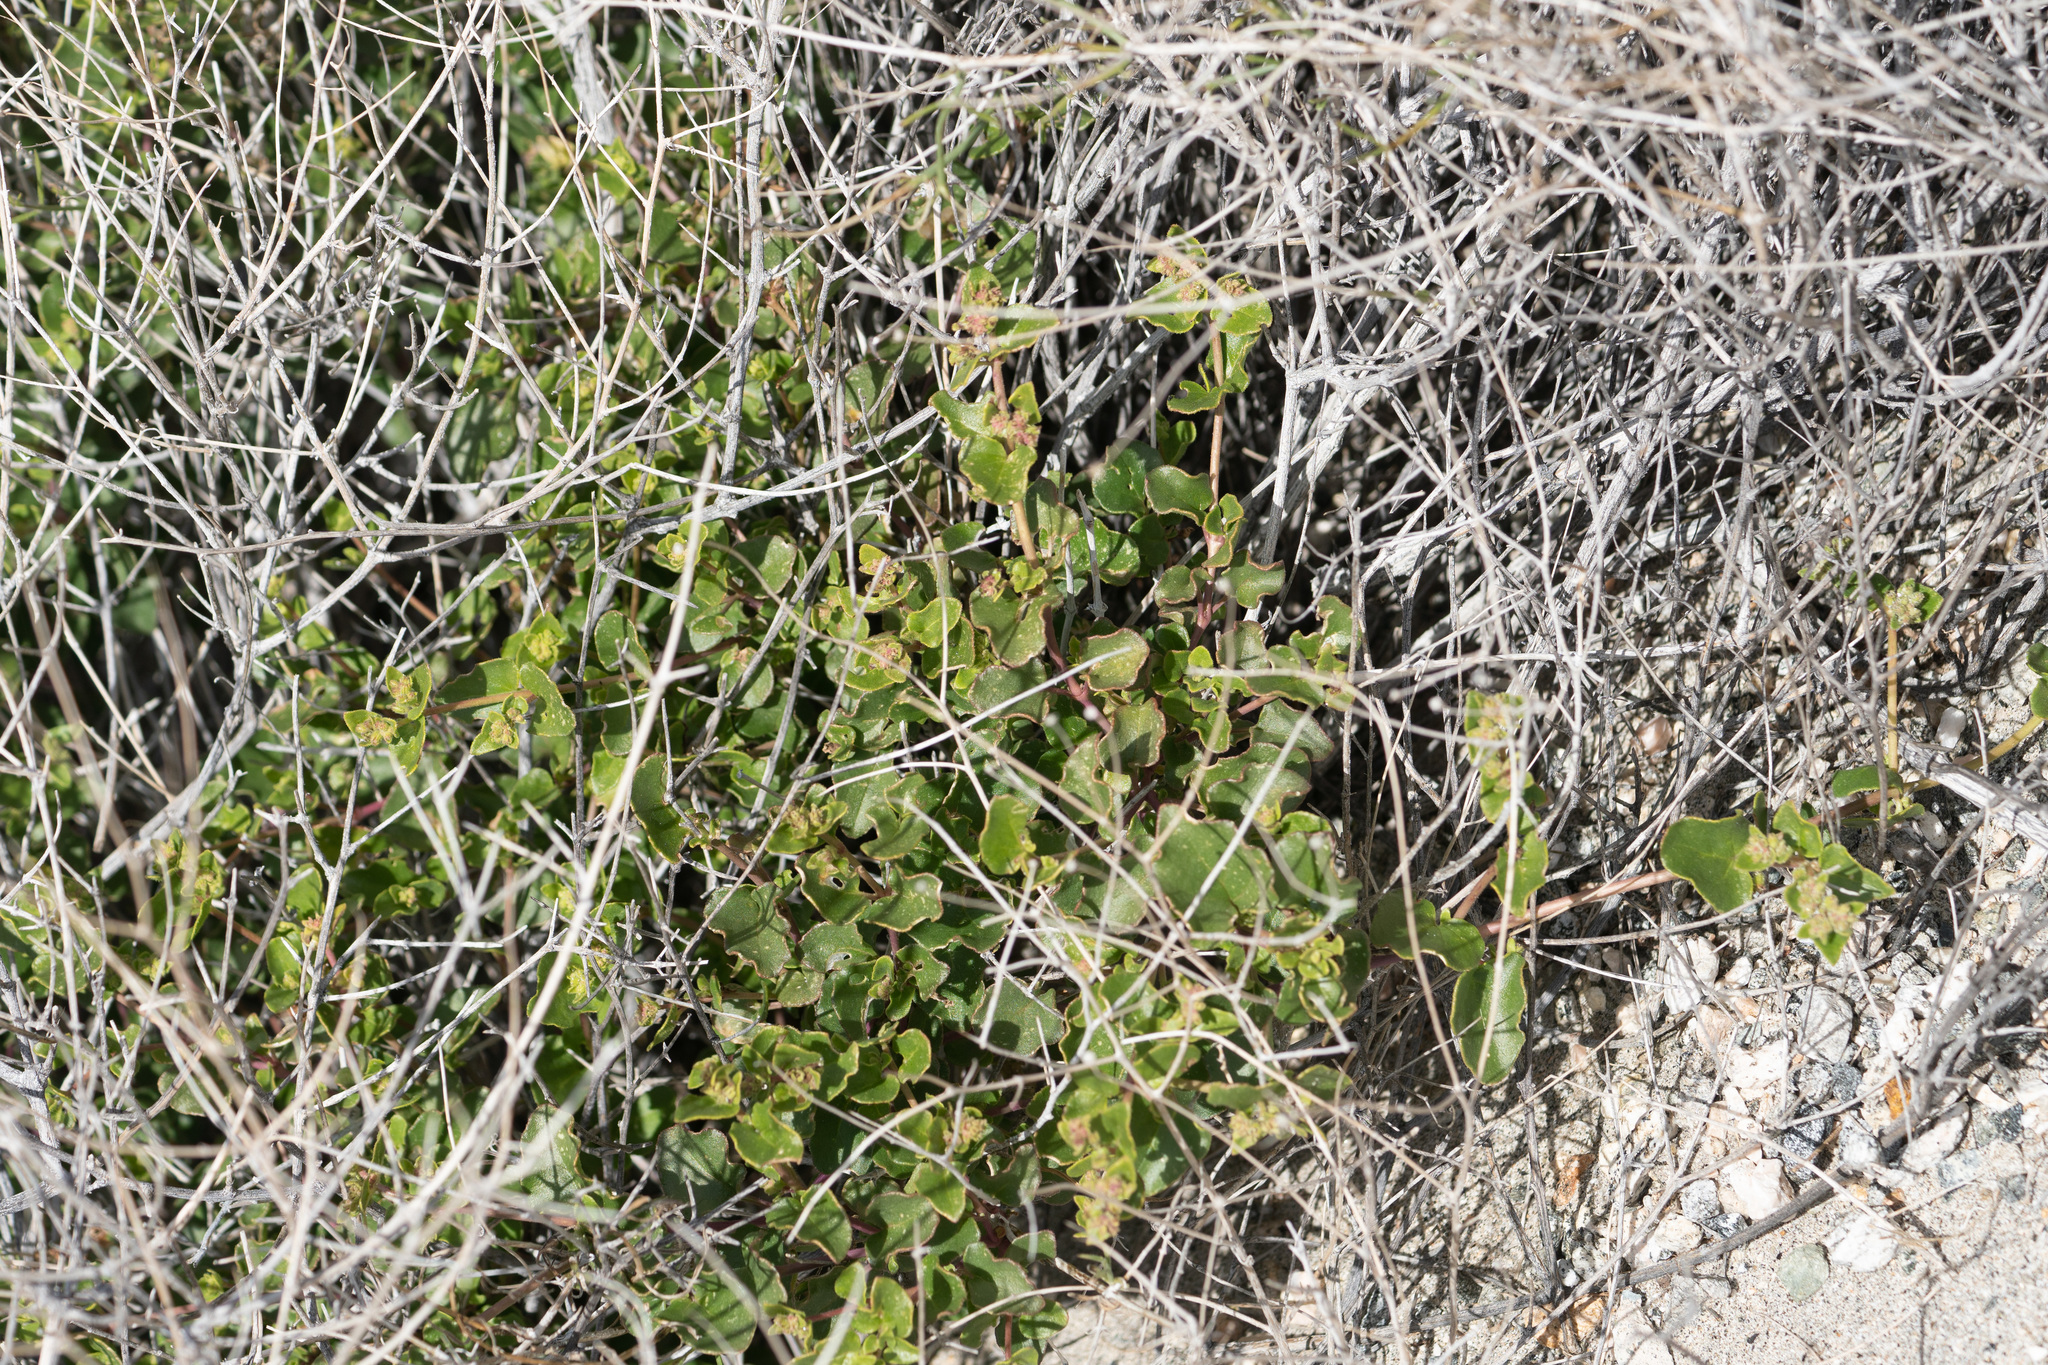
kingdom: Plantae
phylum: Tracheophyta
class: Magnoliopsida
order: Caryophyllales
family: Nyctaginaceae
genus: Mirabilis
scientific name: Mirabilis laevis
